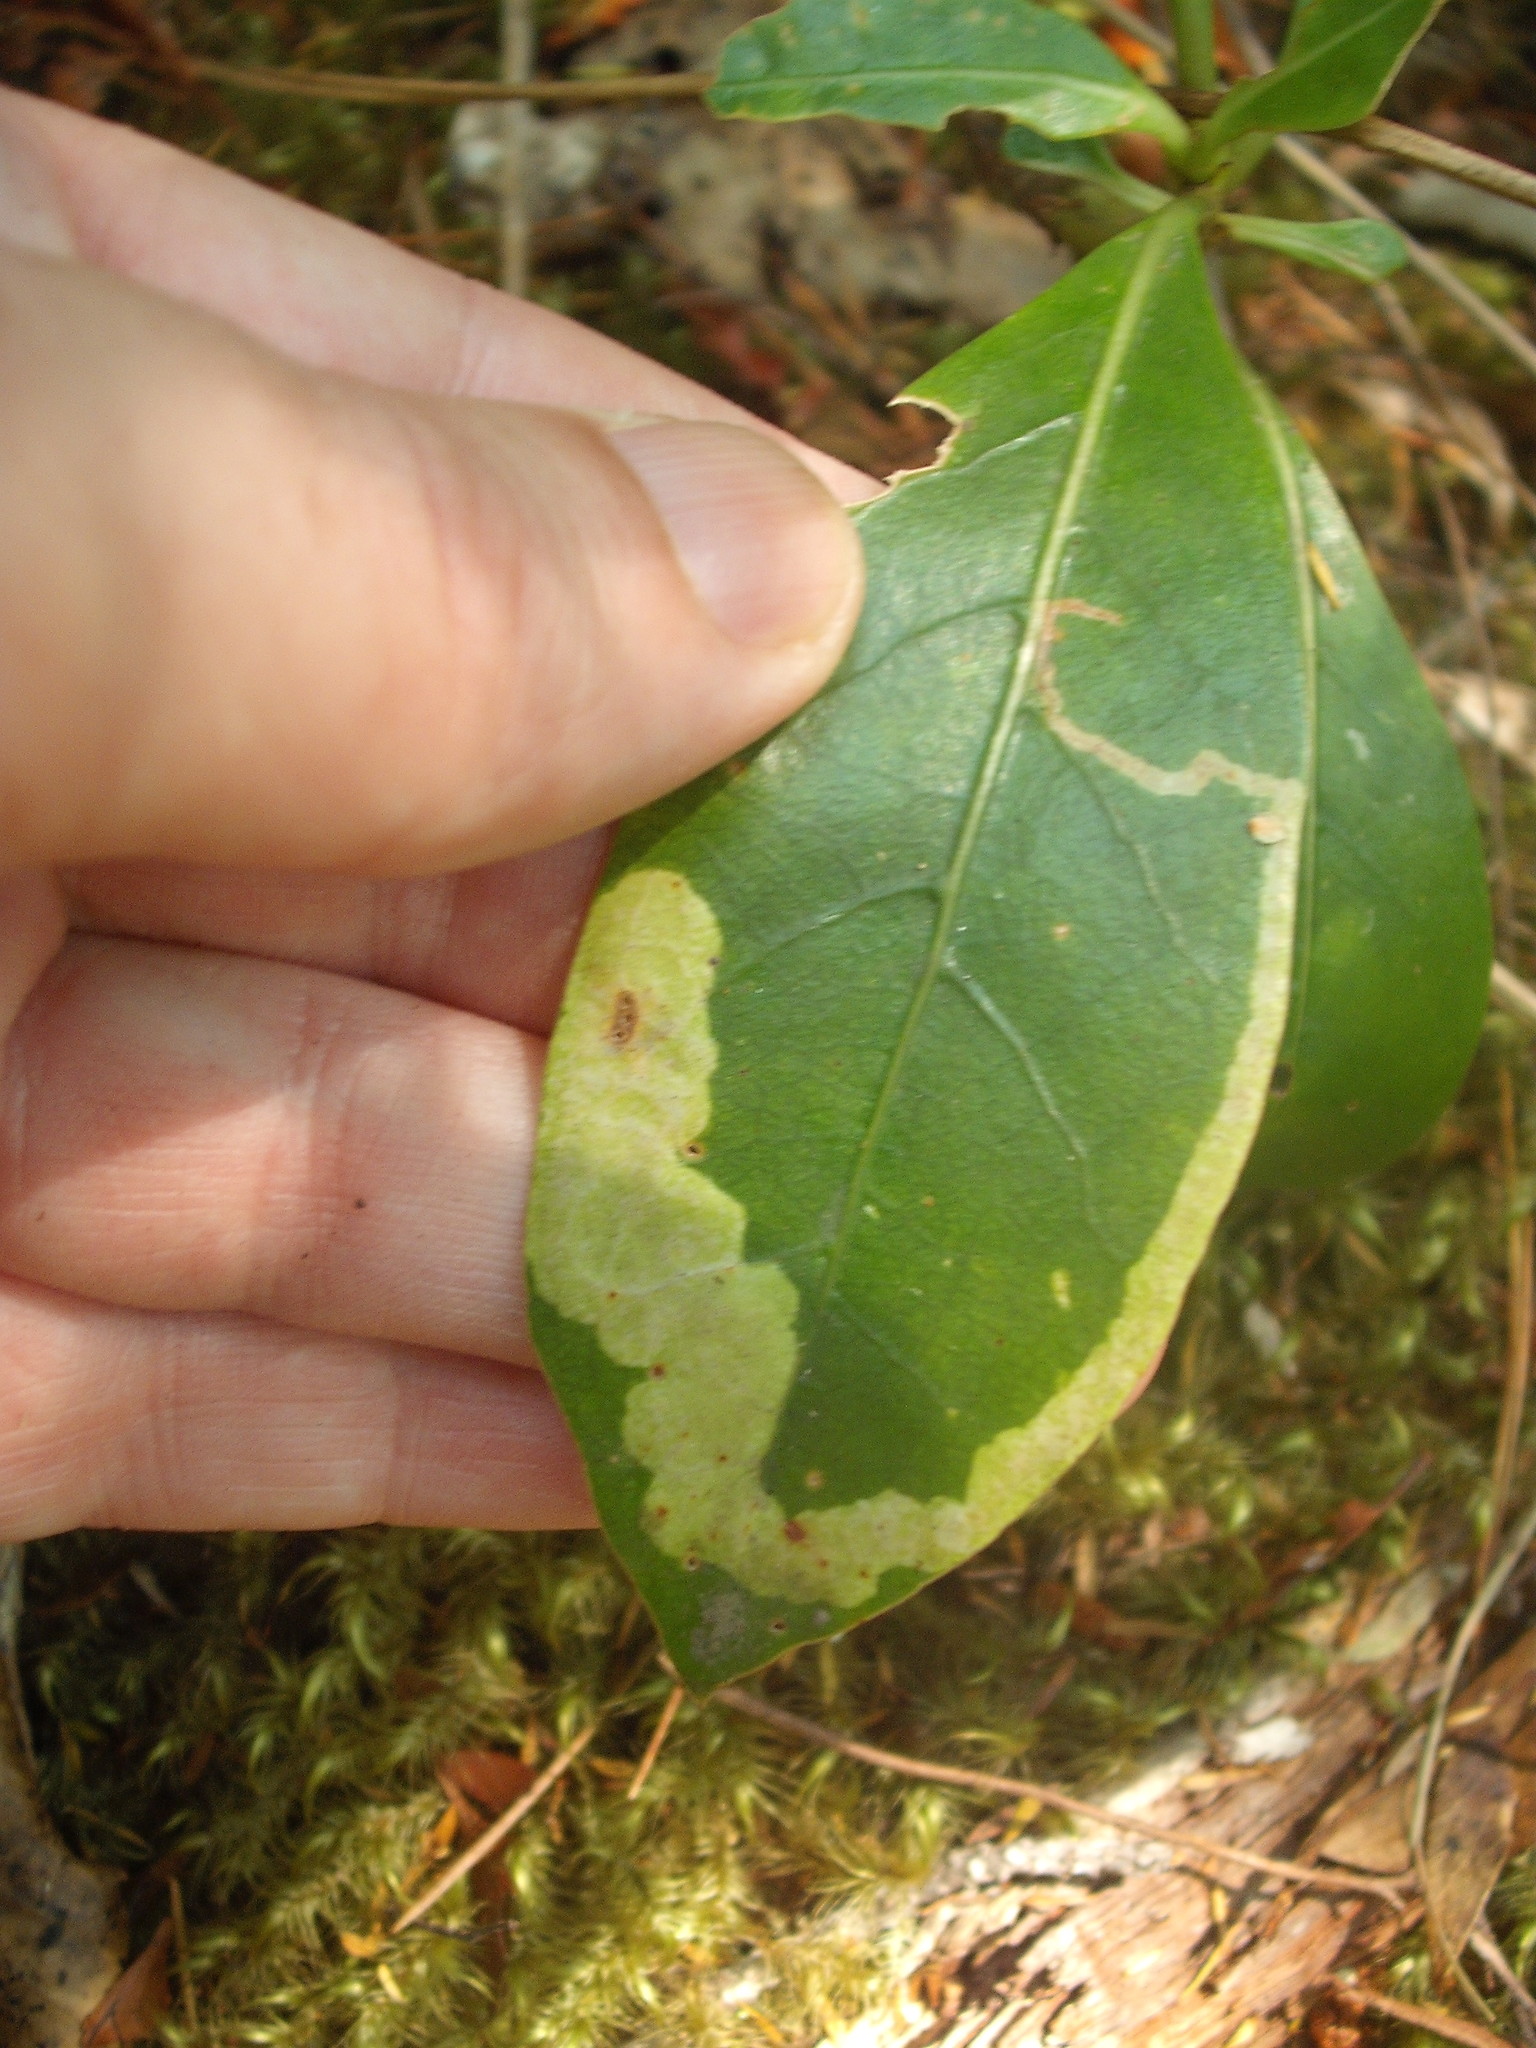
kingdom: Animalia
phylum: Arthropoda
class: Insecta
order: Lepidoptera
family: Gracillariidae
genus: Corythoxestis
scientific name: Corythoxestis zorionella
